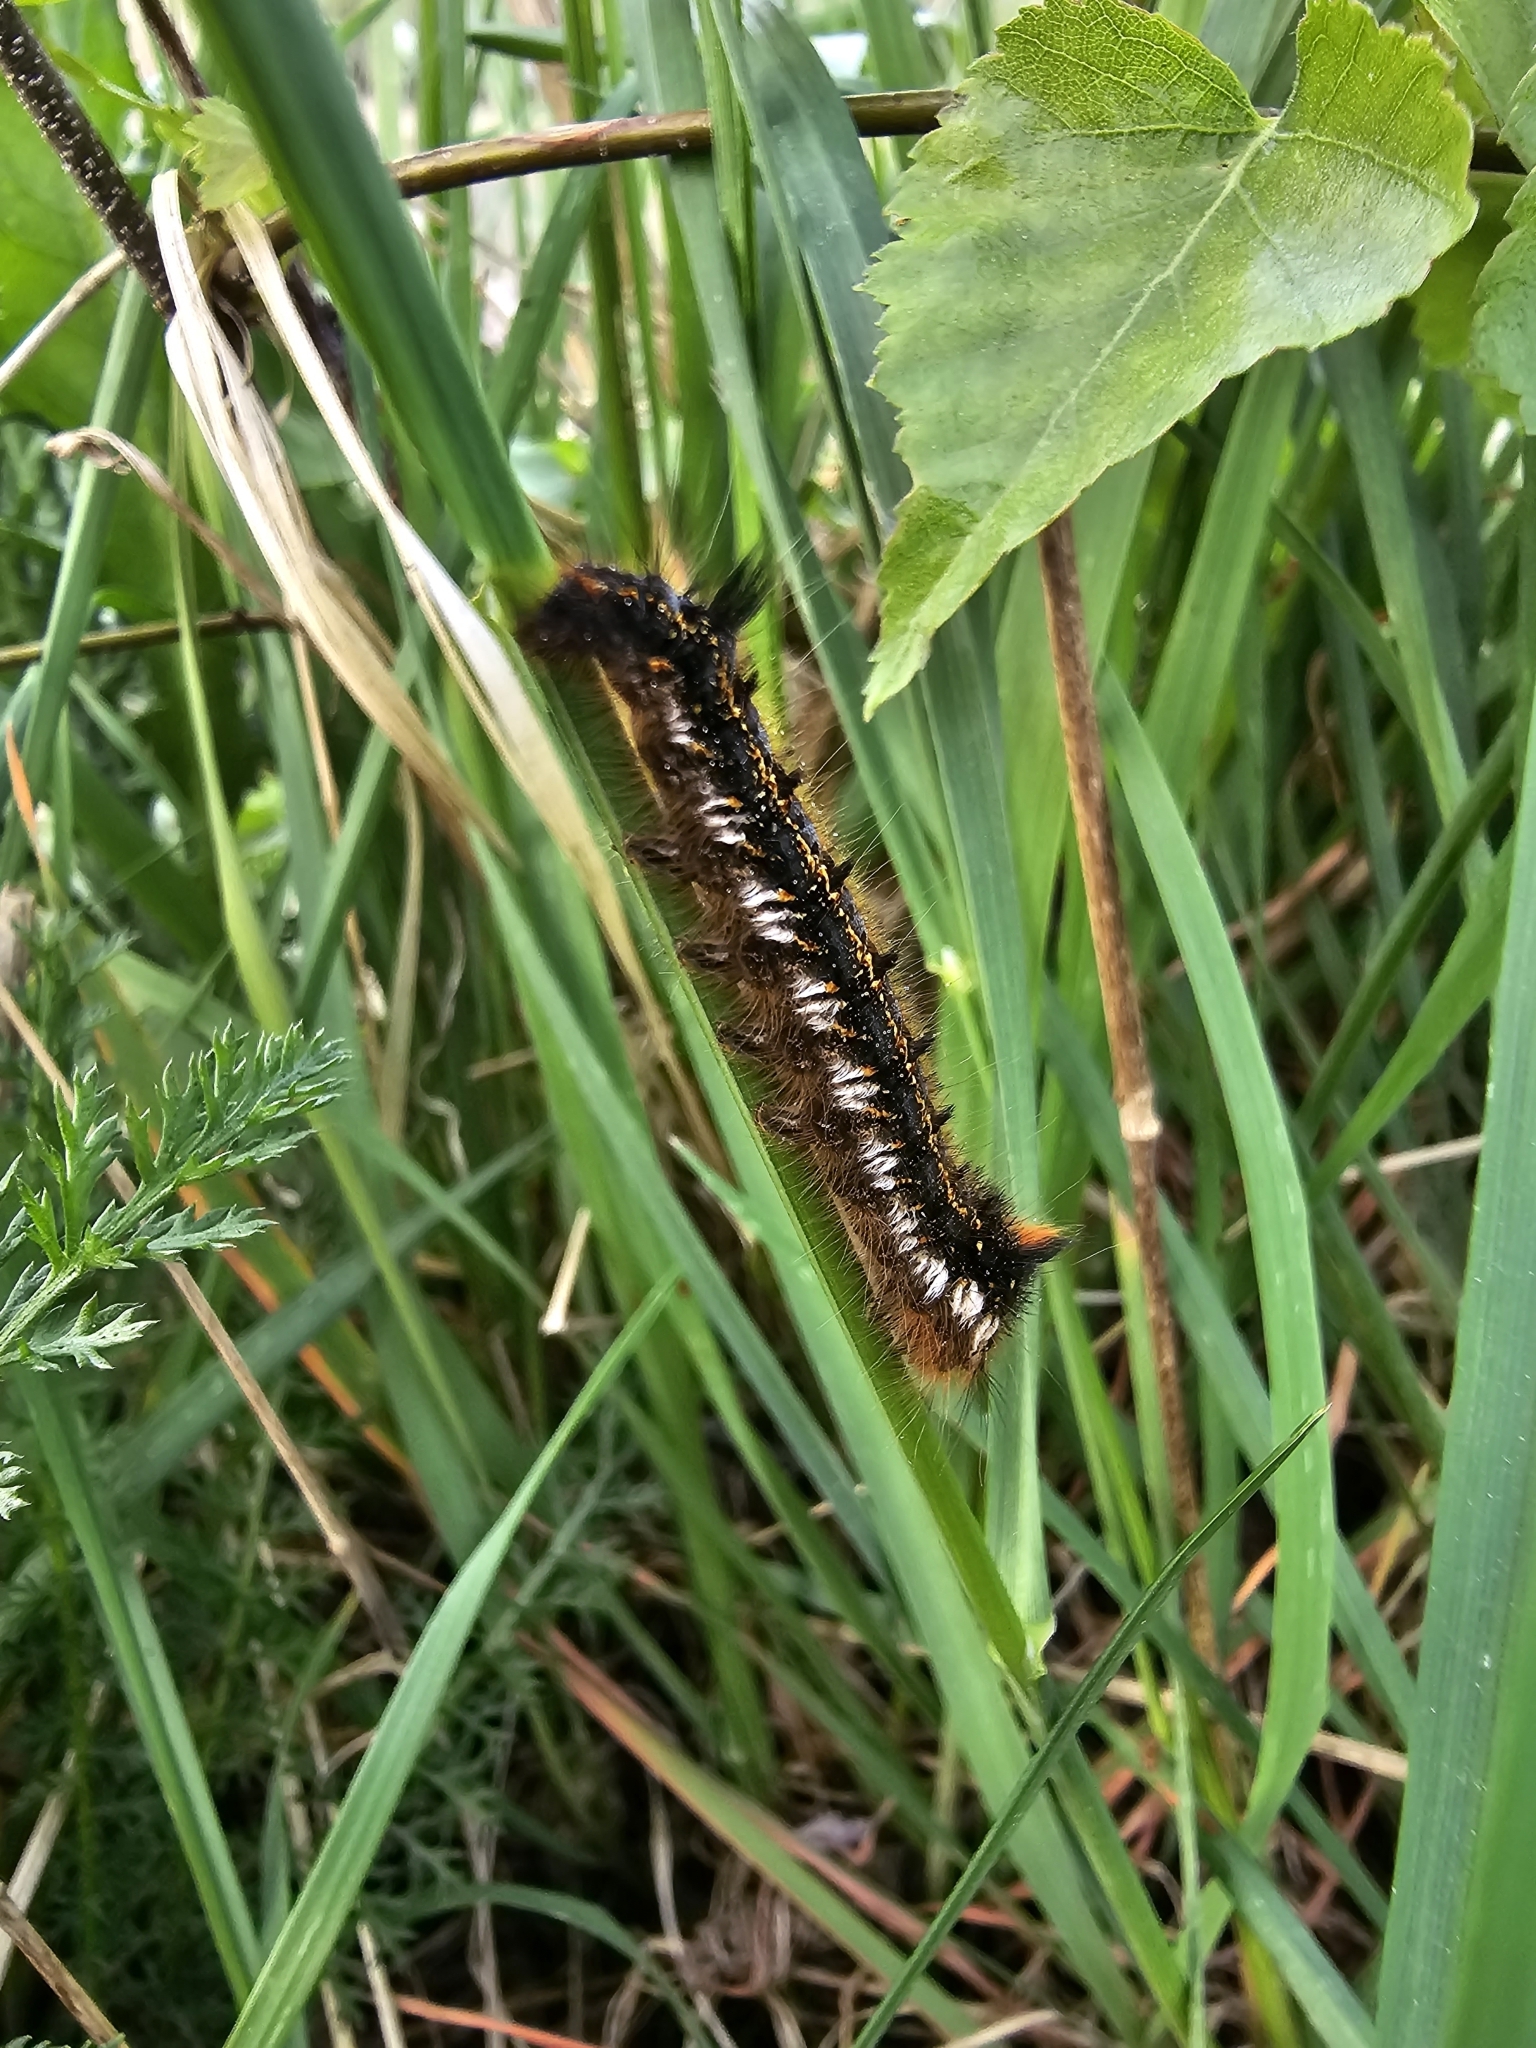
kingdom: Animalia
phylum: Arthropoda
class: Insecta
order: Lepidoptera
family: Lasiocampidae
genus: Euthrix
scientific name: Euthrix potatoria
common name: Drinker
